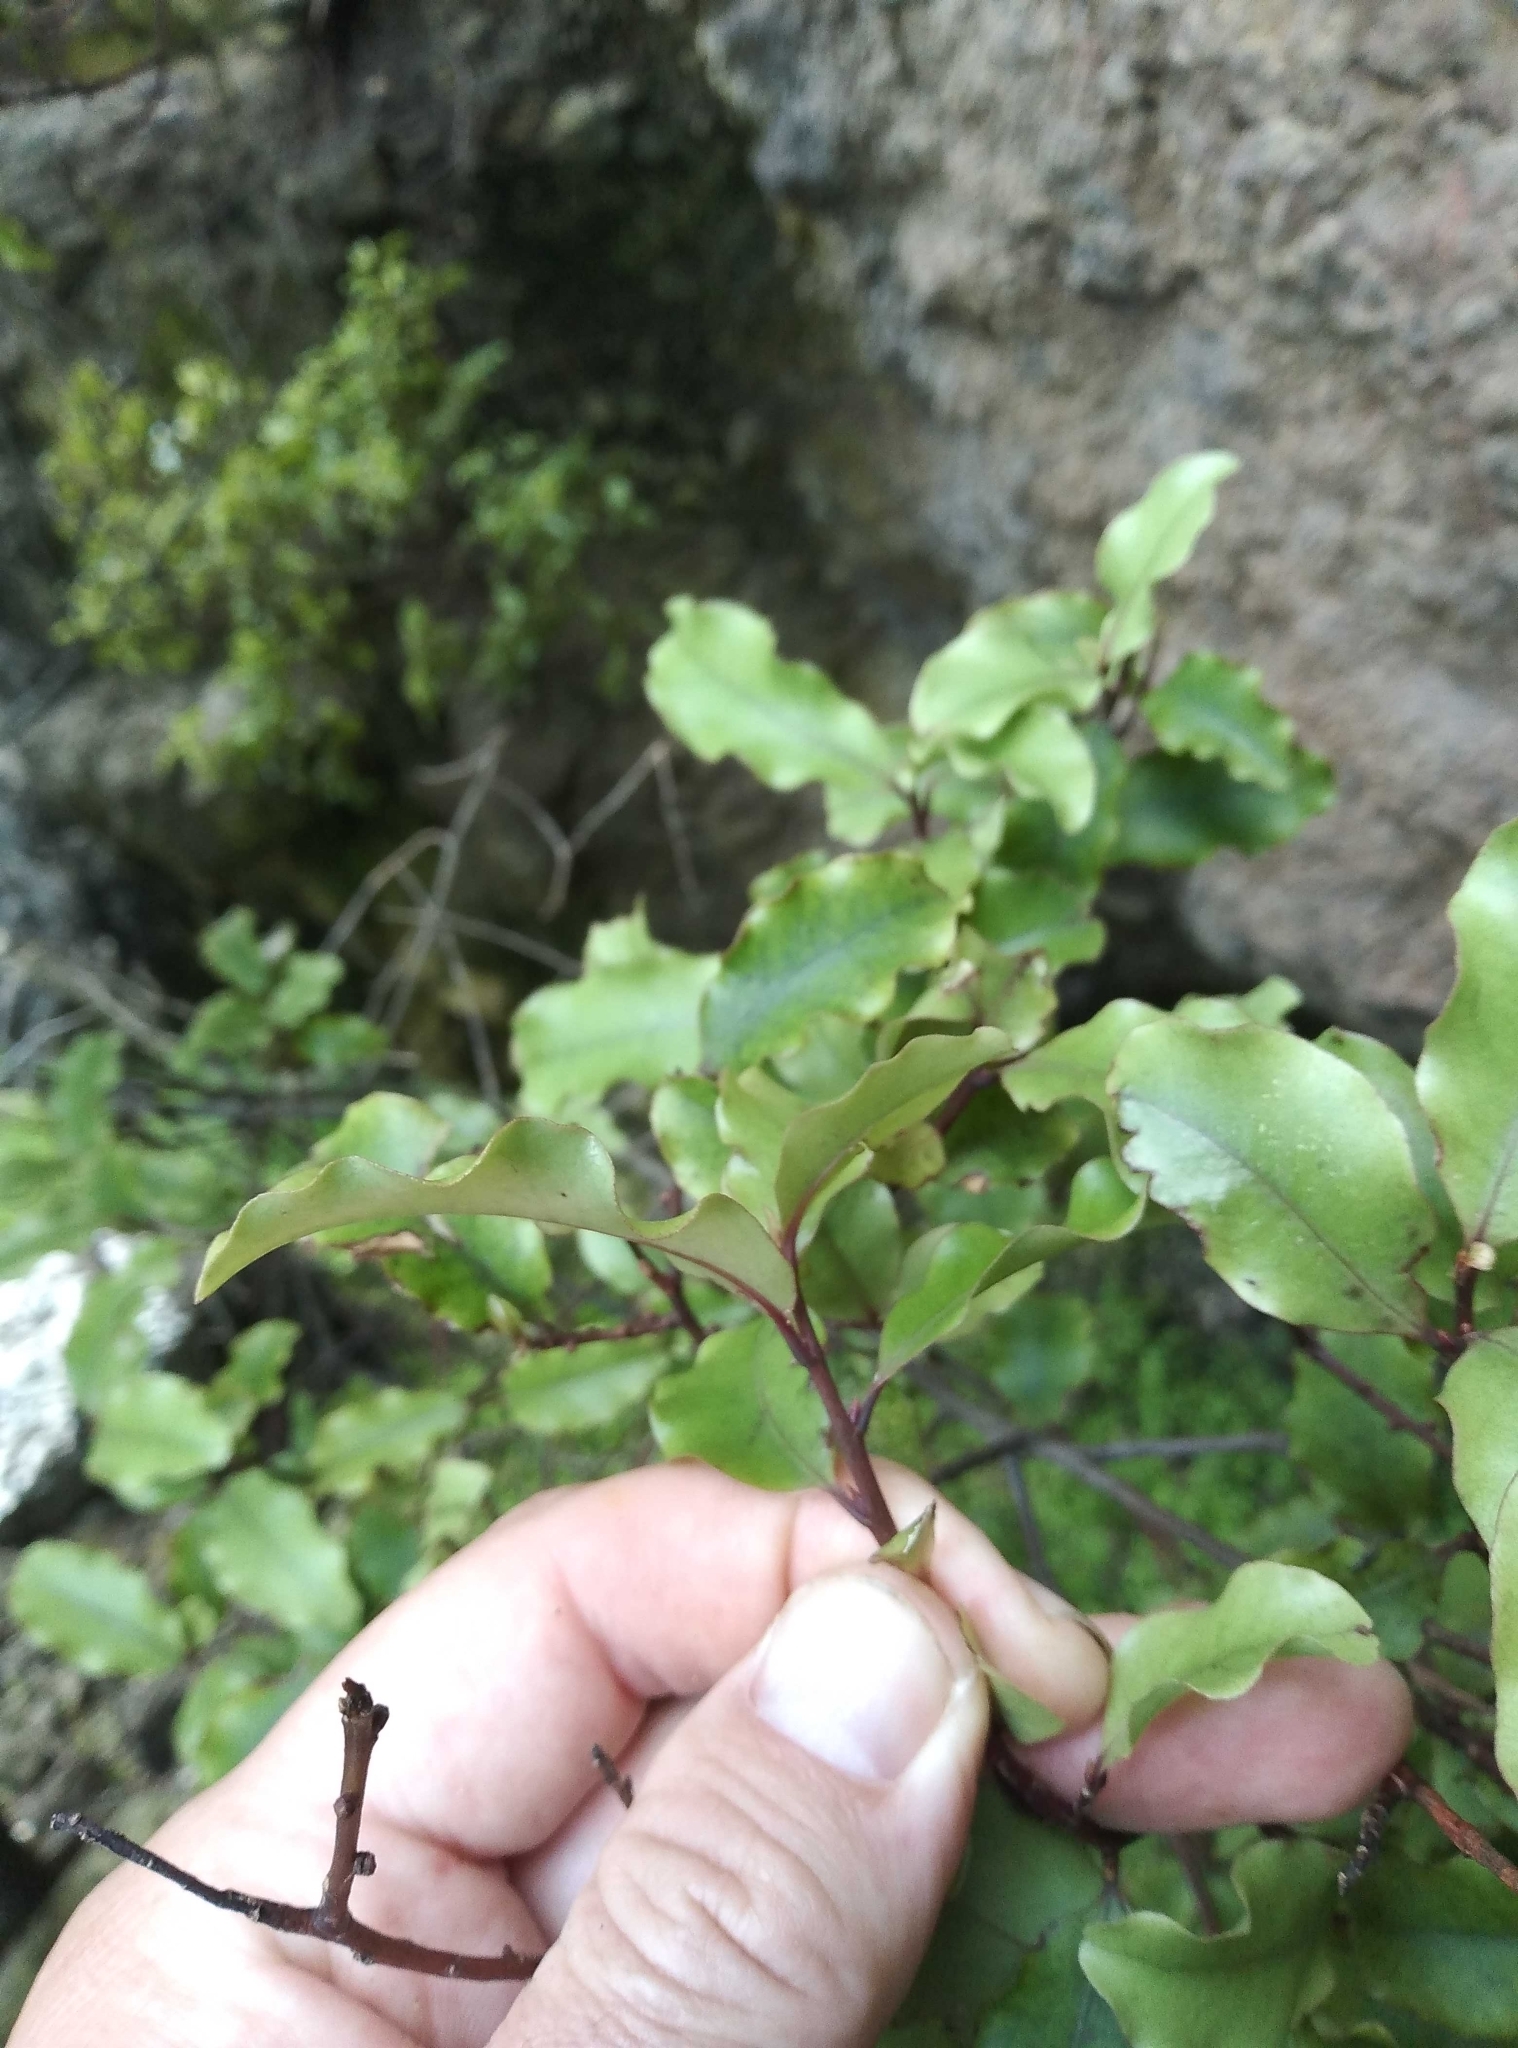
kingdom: Plantae
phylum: Tracheophyta
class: Magnoliopsida
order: Ericales
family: Primulaceae
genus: Myrsine
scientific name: Myrsine australis
